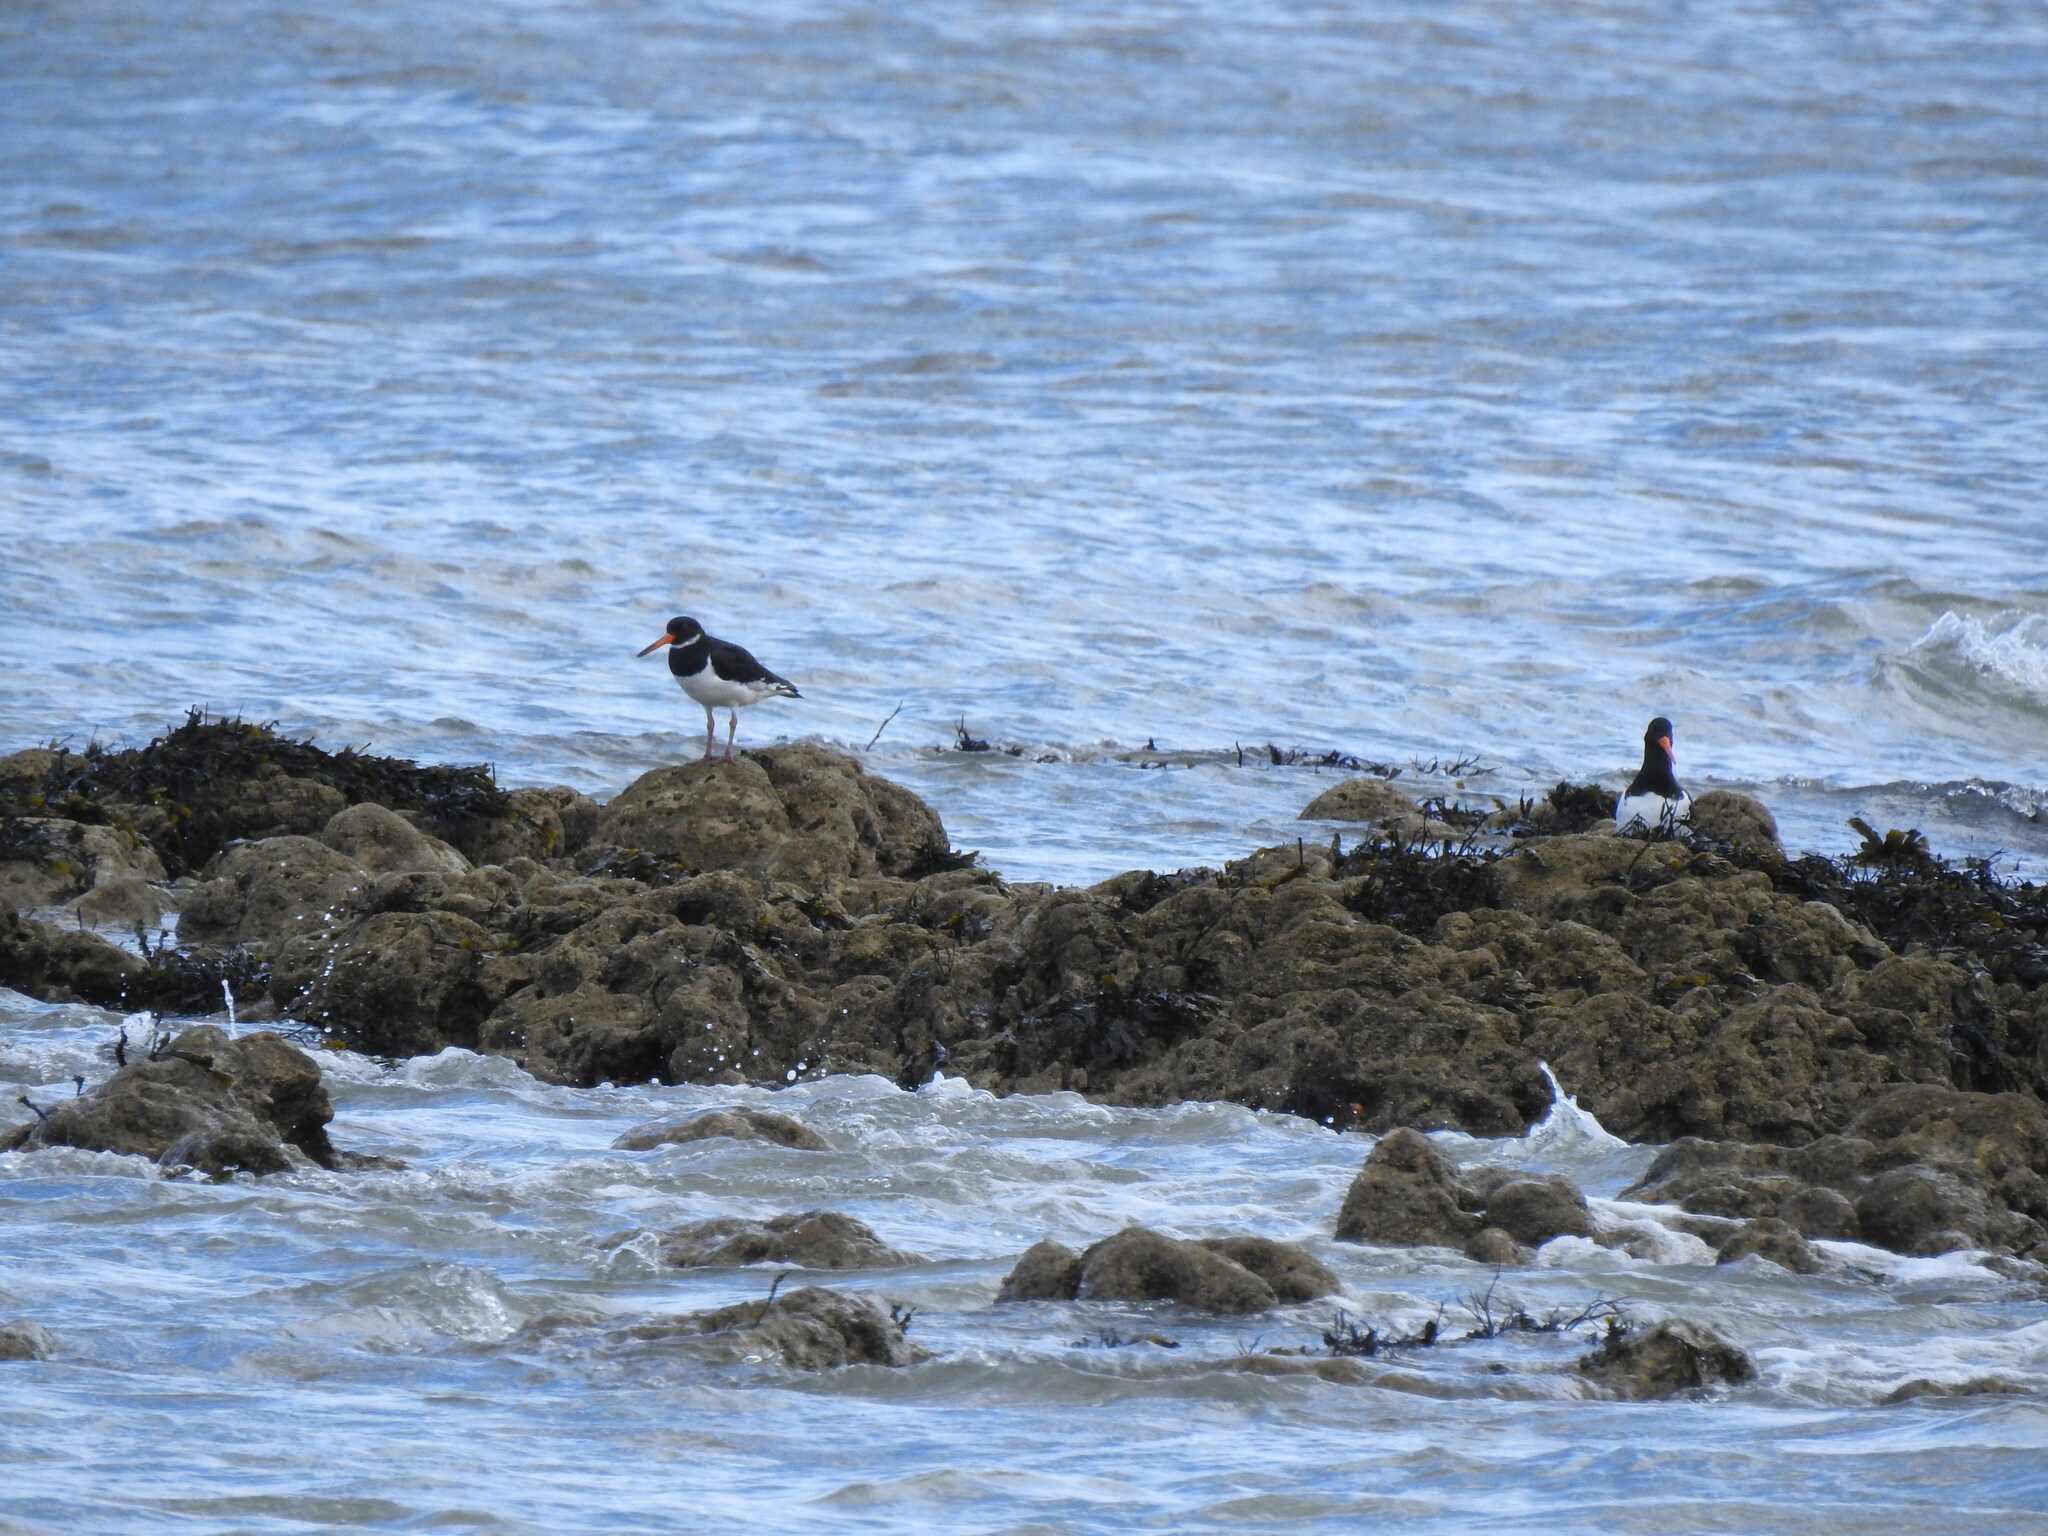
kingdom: Animalia
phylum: Chordata
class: Aves
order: Charadriiformes
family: Haematopodidae
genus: Haematopus
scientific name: Haematopus ostralegus
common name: Eurasian oystercatcher
